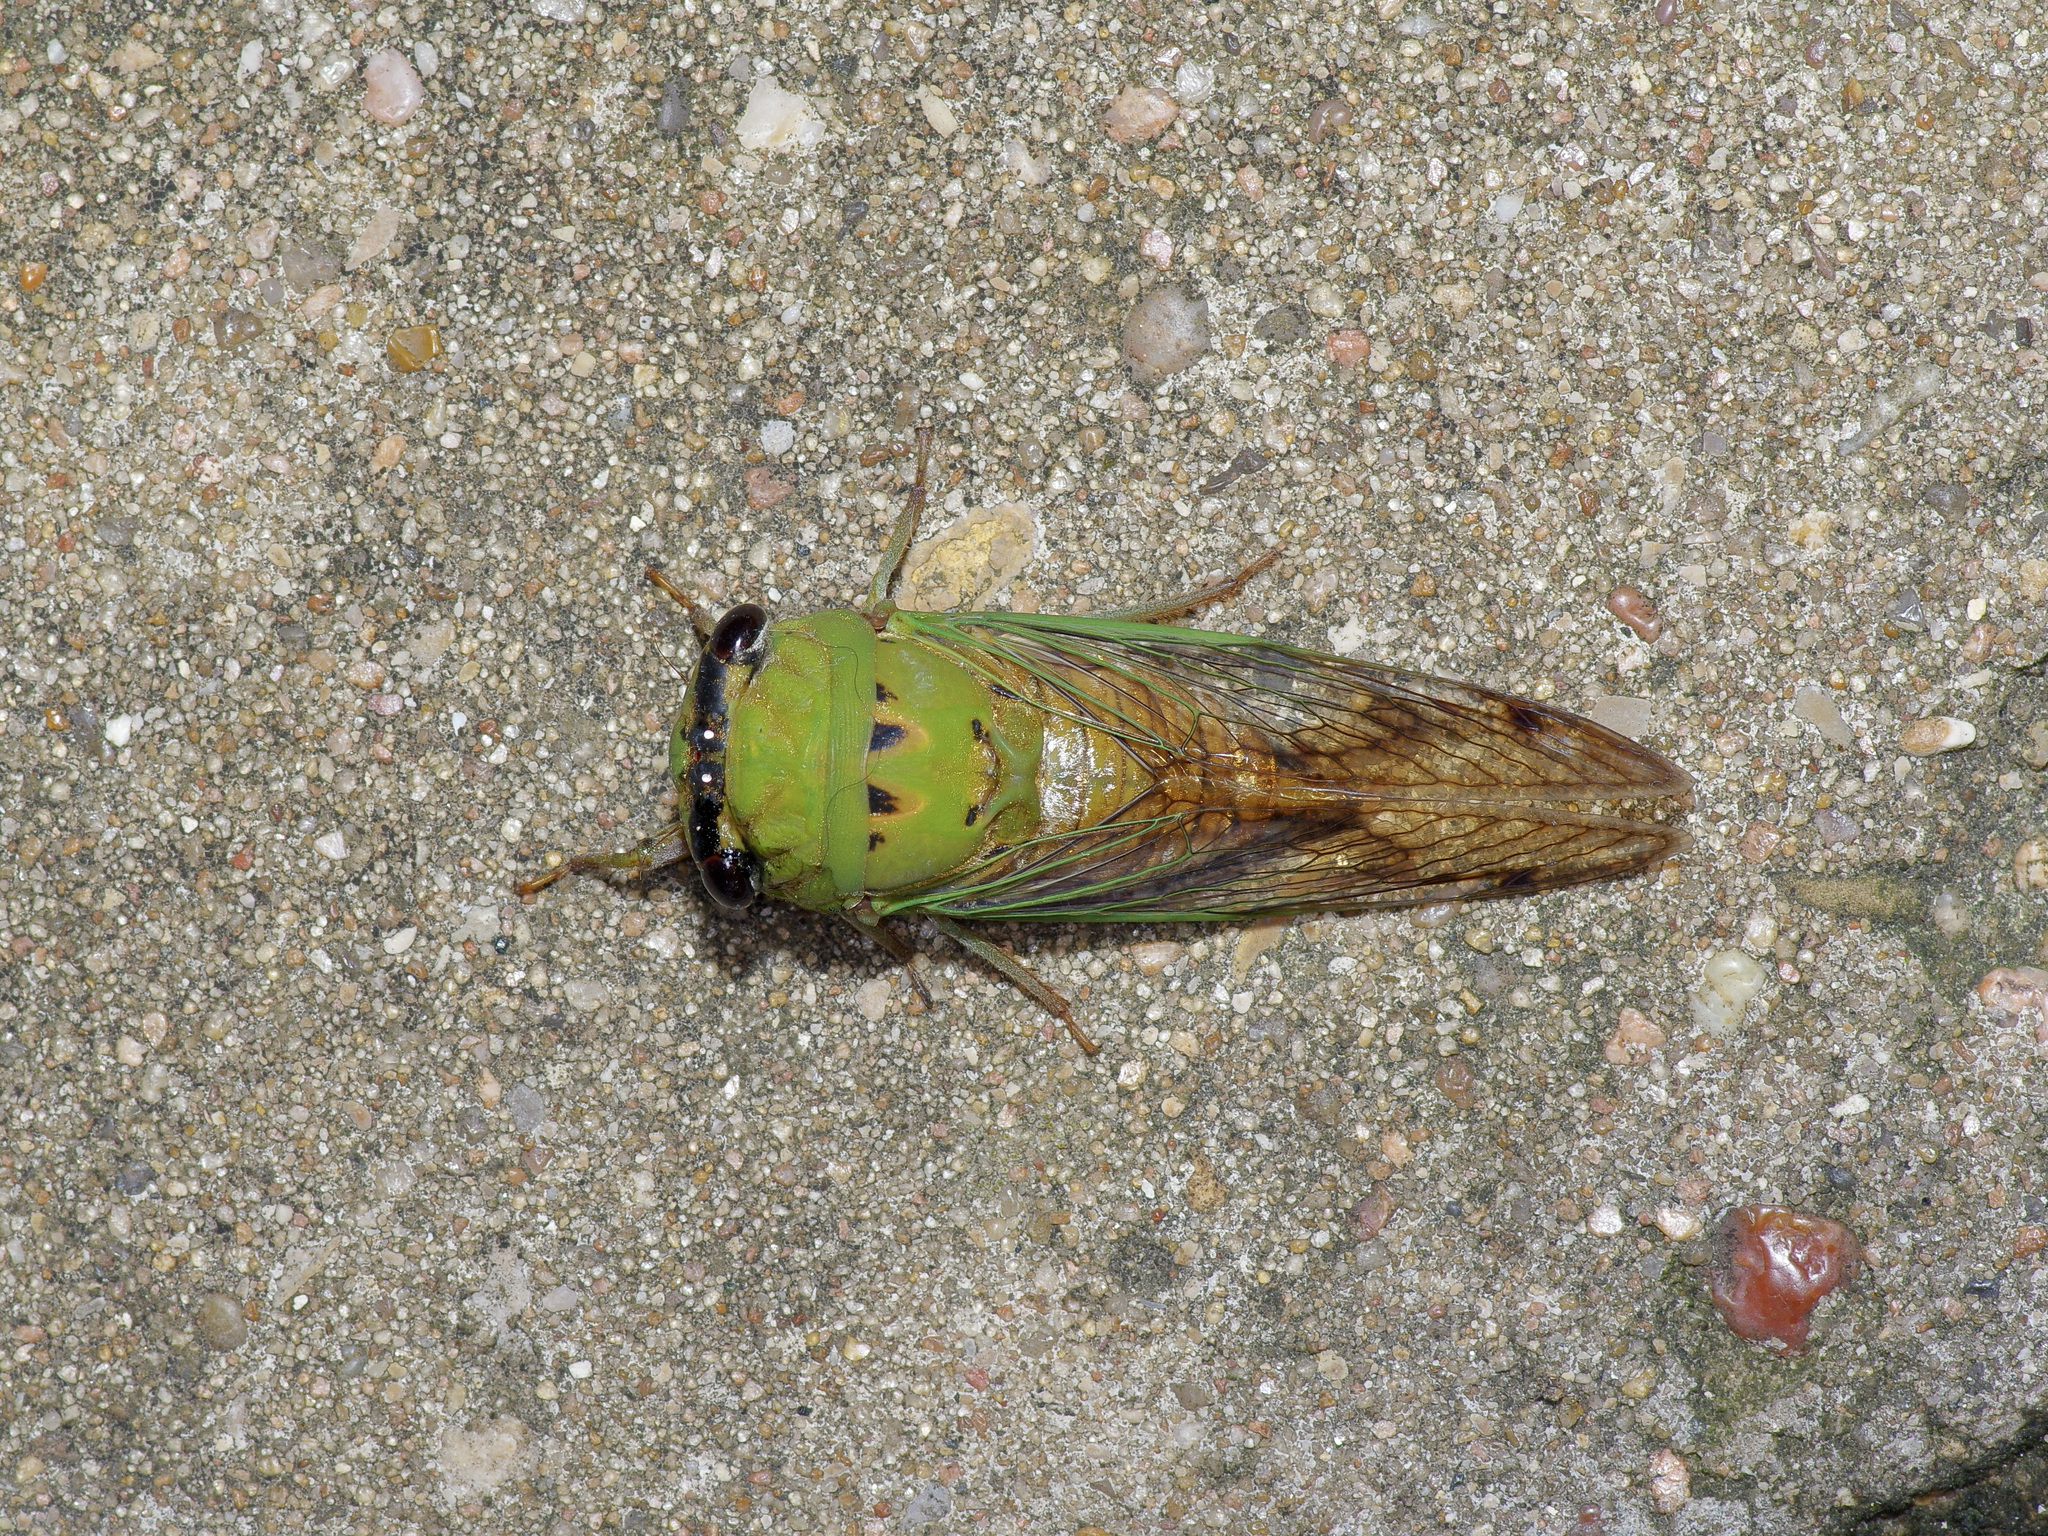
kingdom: Animalia
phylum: Arthropoda
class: Insecta
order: Hemiptera
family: Cicadidae
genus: Neotibicen
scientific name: Neotibicen superbus
